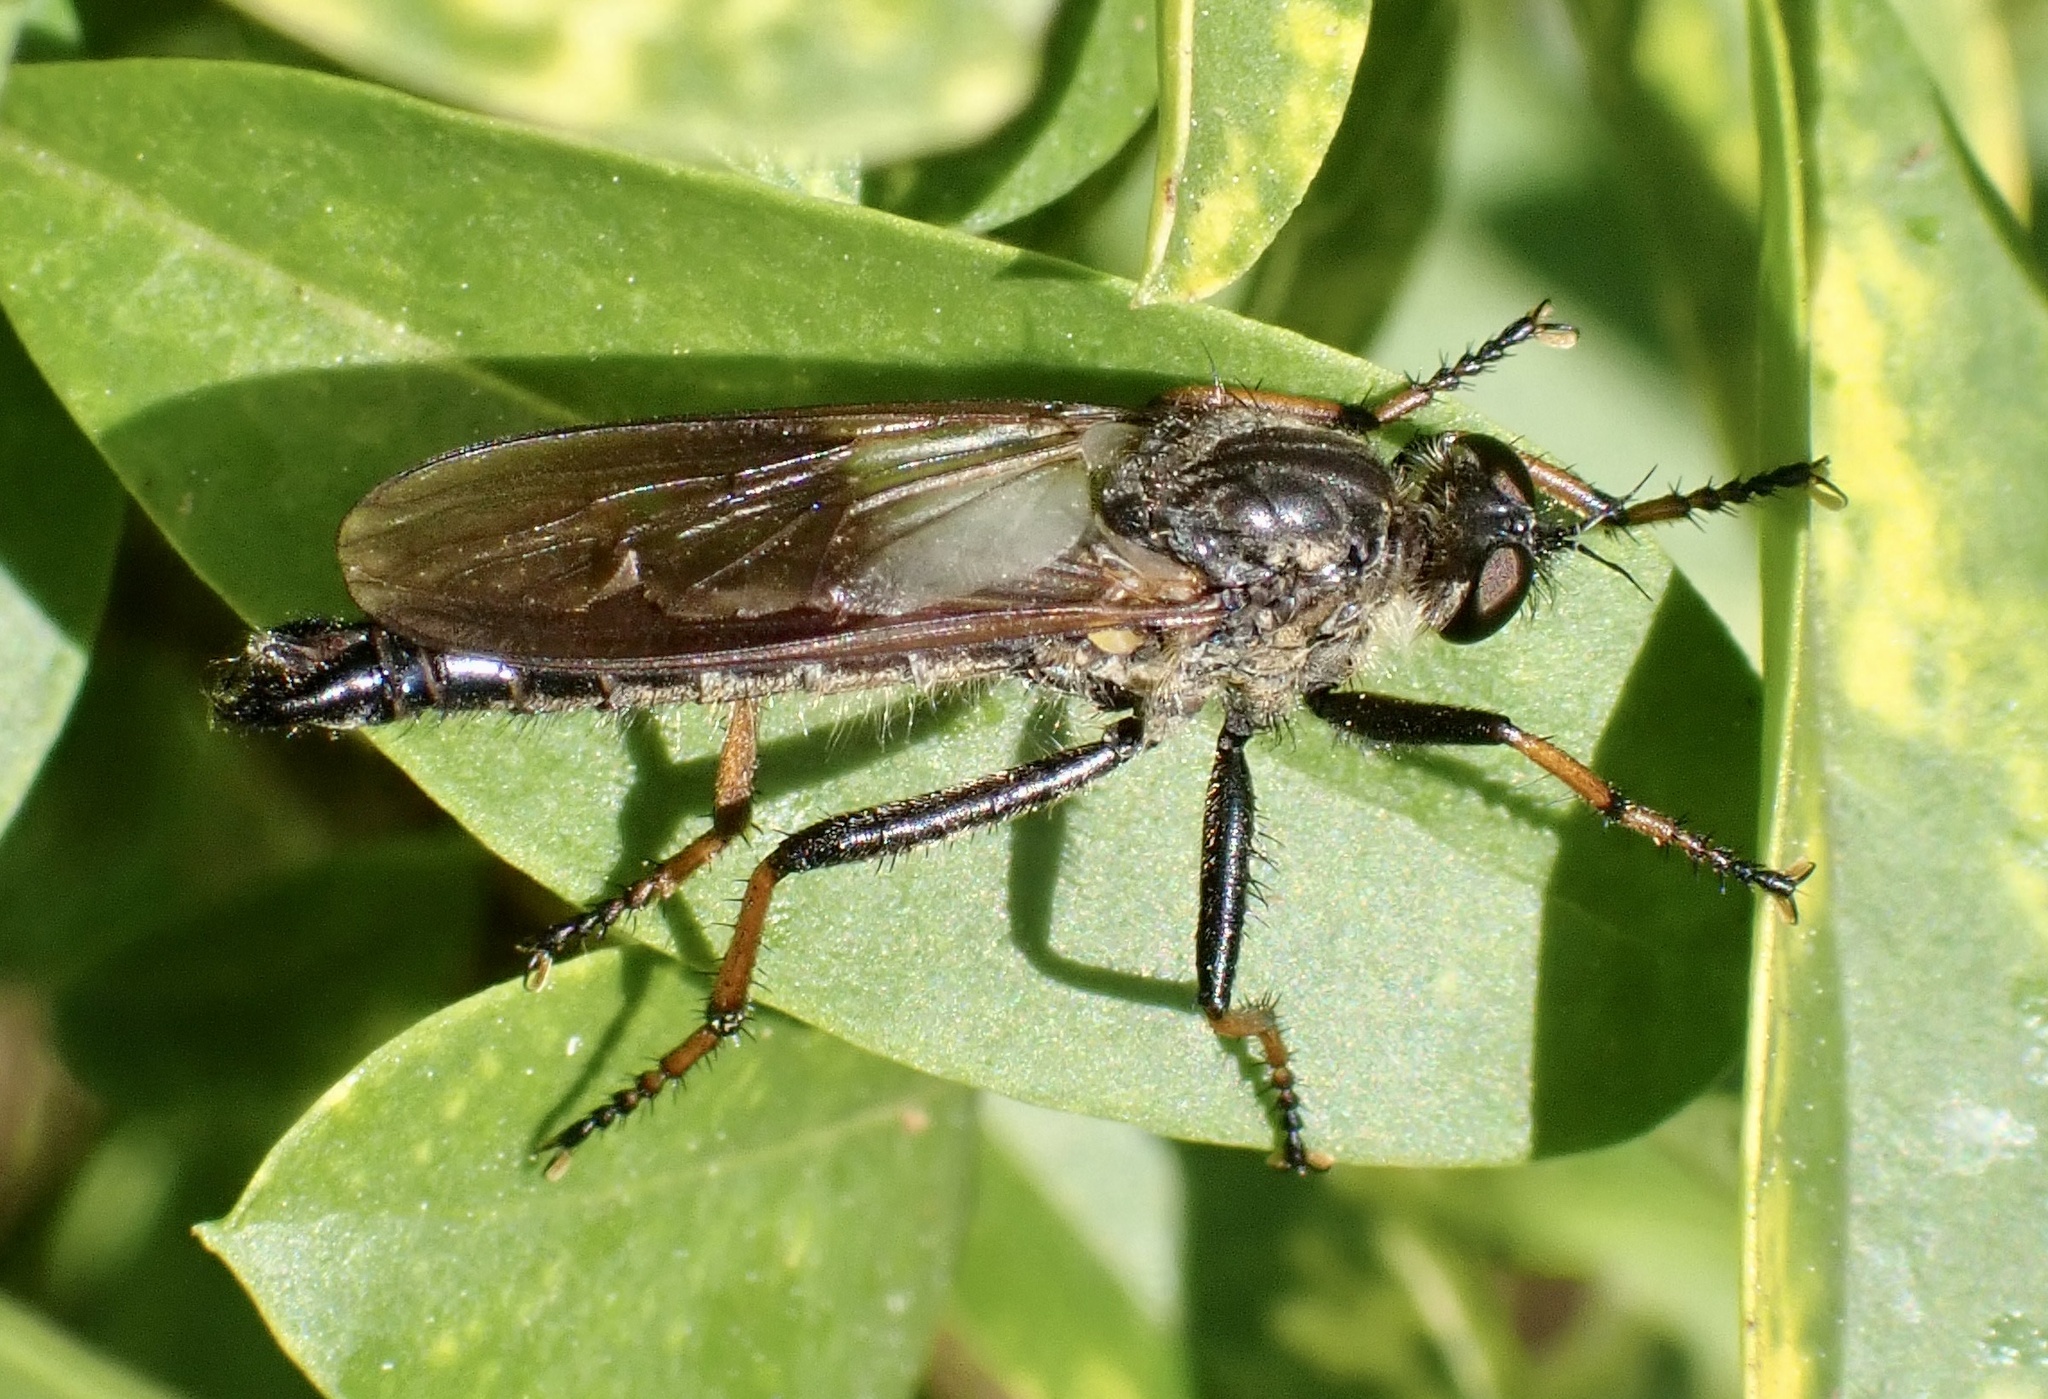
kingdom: Animalia
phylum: Arthropoda
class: Insecta
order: Diptera
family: Asilidae
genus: Pamponerus
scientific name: Pamponerus germanicus
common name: Pied-winged robberfly
